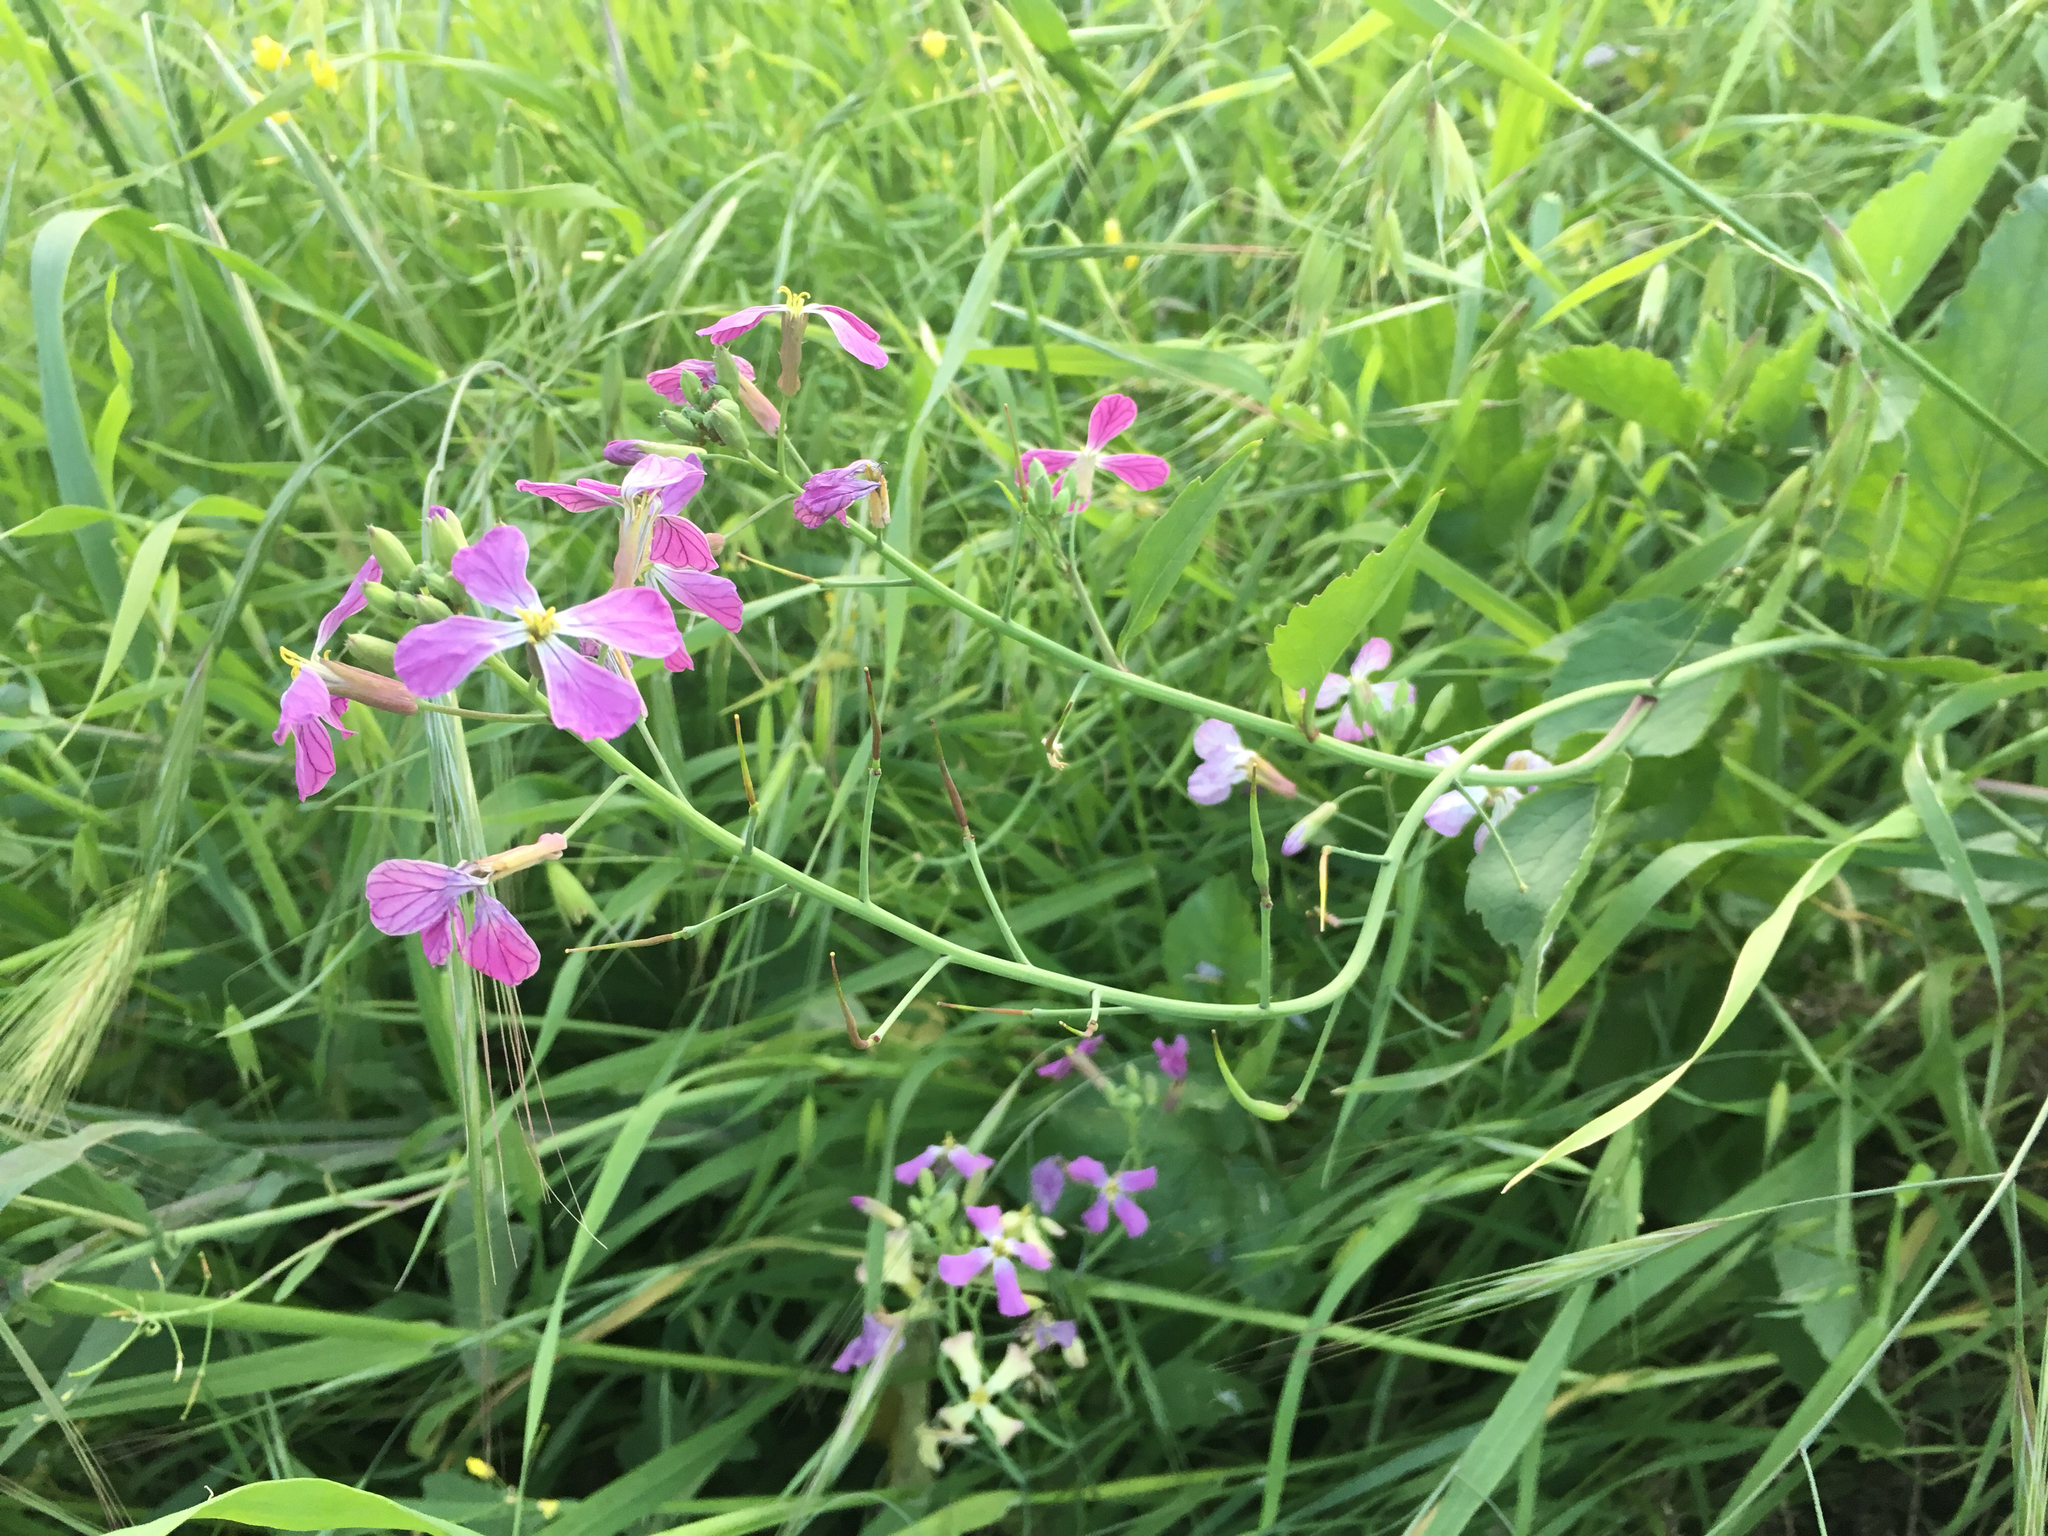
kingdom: Plantae
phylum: Tracheophyta
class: Magnoliopsida
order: Brassicales
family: Brassicaceae
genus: Raphanus
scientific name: Raphanus sativus
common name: Cultivated radish
